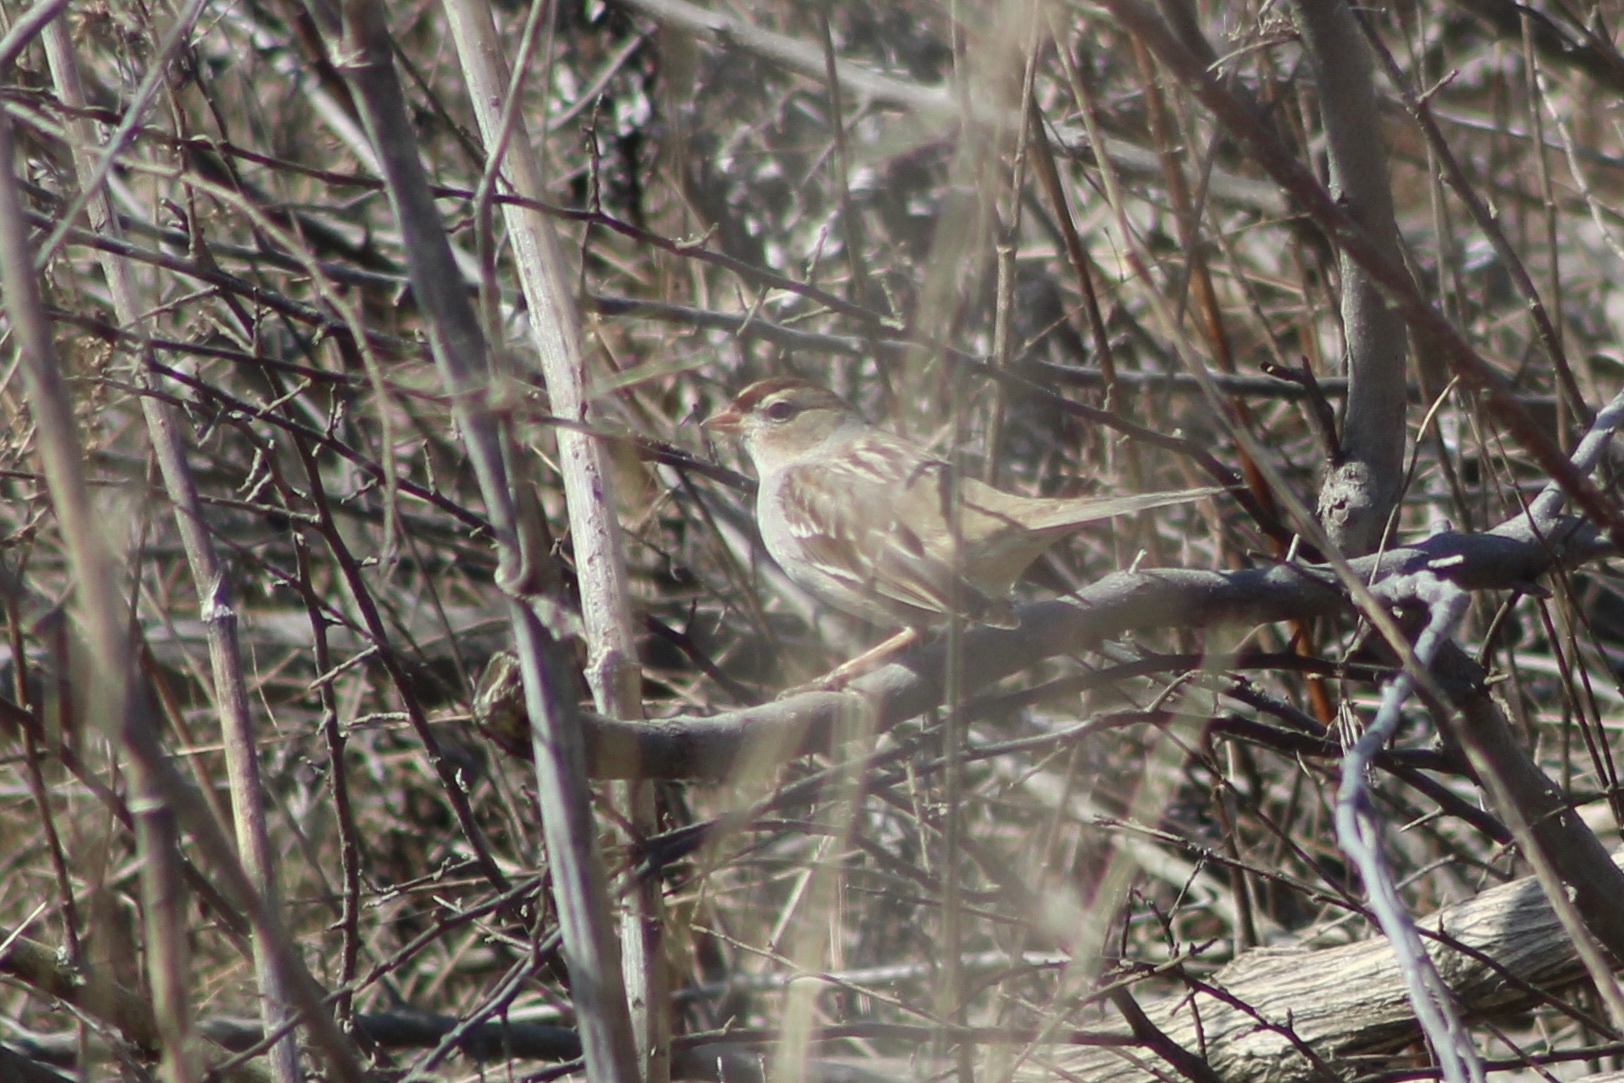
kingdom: Animalia
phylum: Chordata
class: Aves
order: Passeriformes
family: Passerellidae
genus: Zonotrichia
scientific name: Zonotrichia leucophrys
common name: White-crowned sparrow
